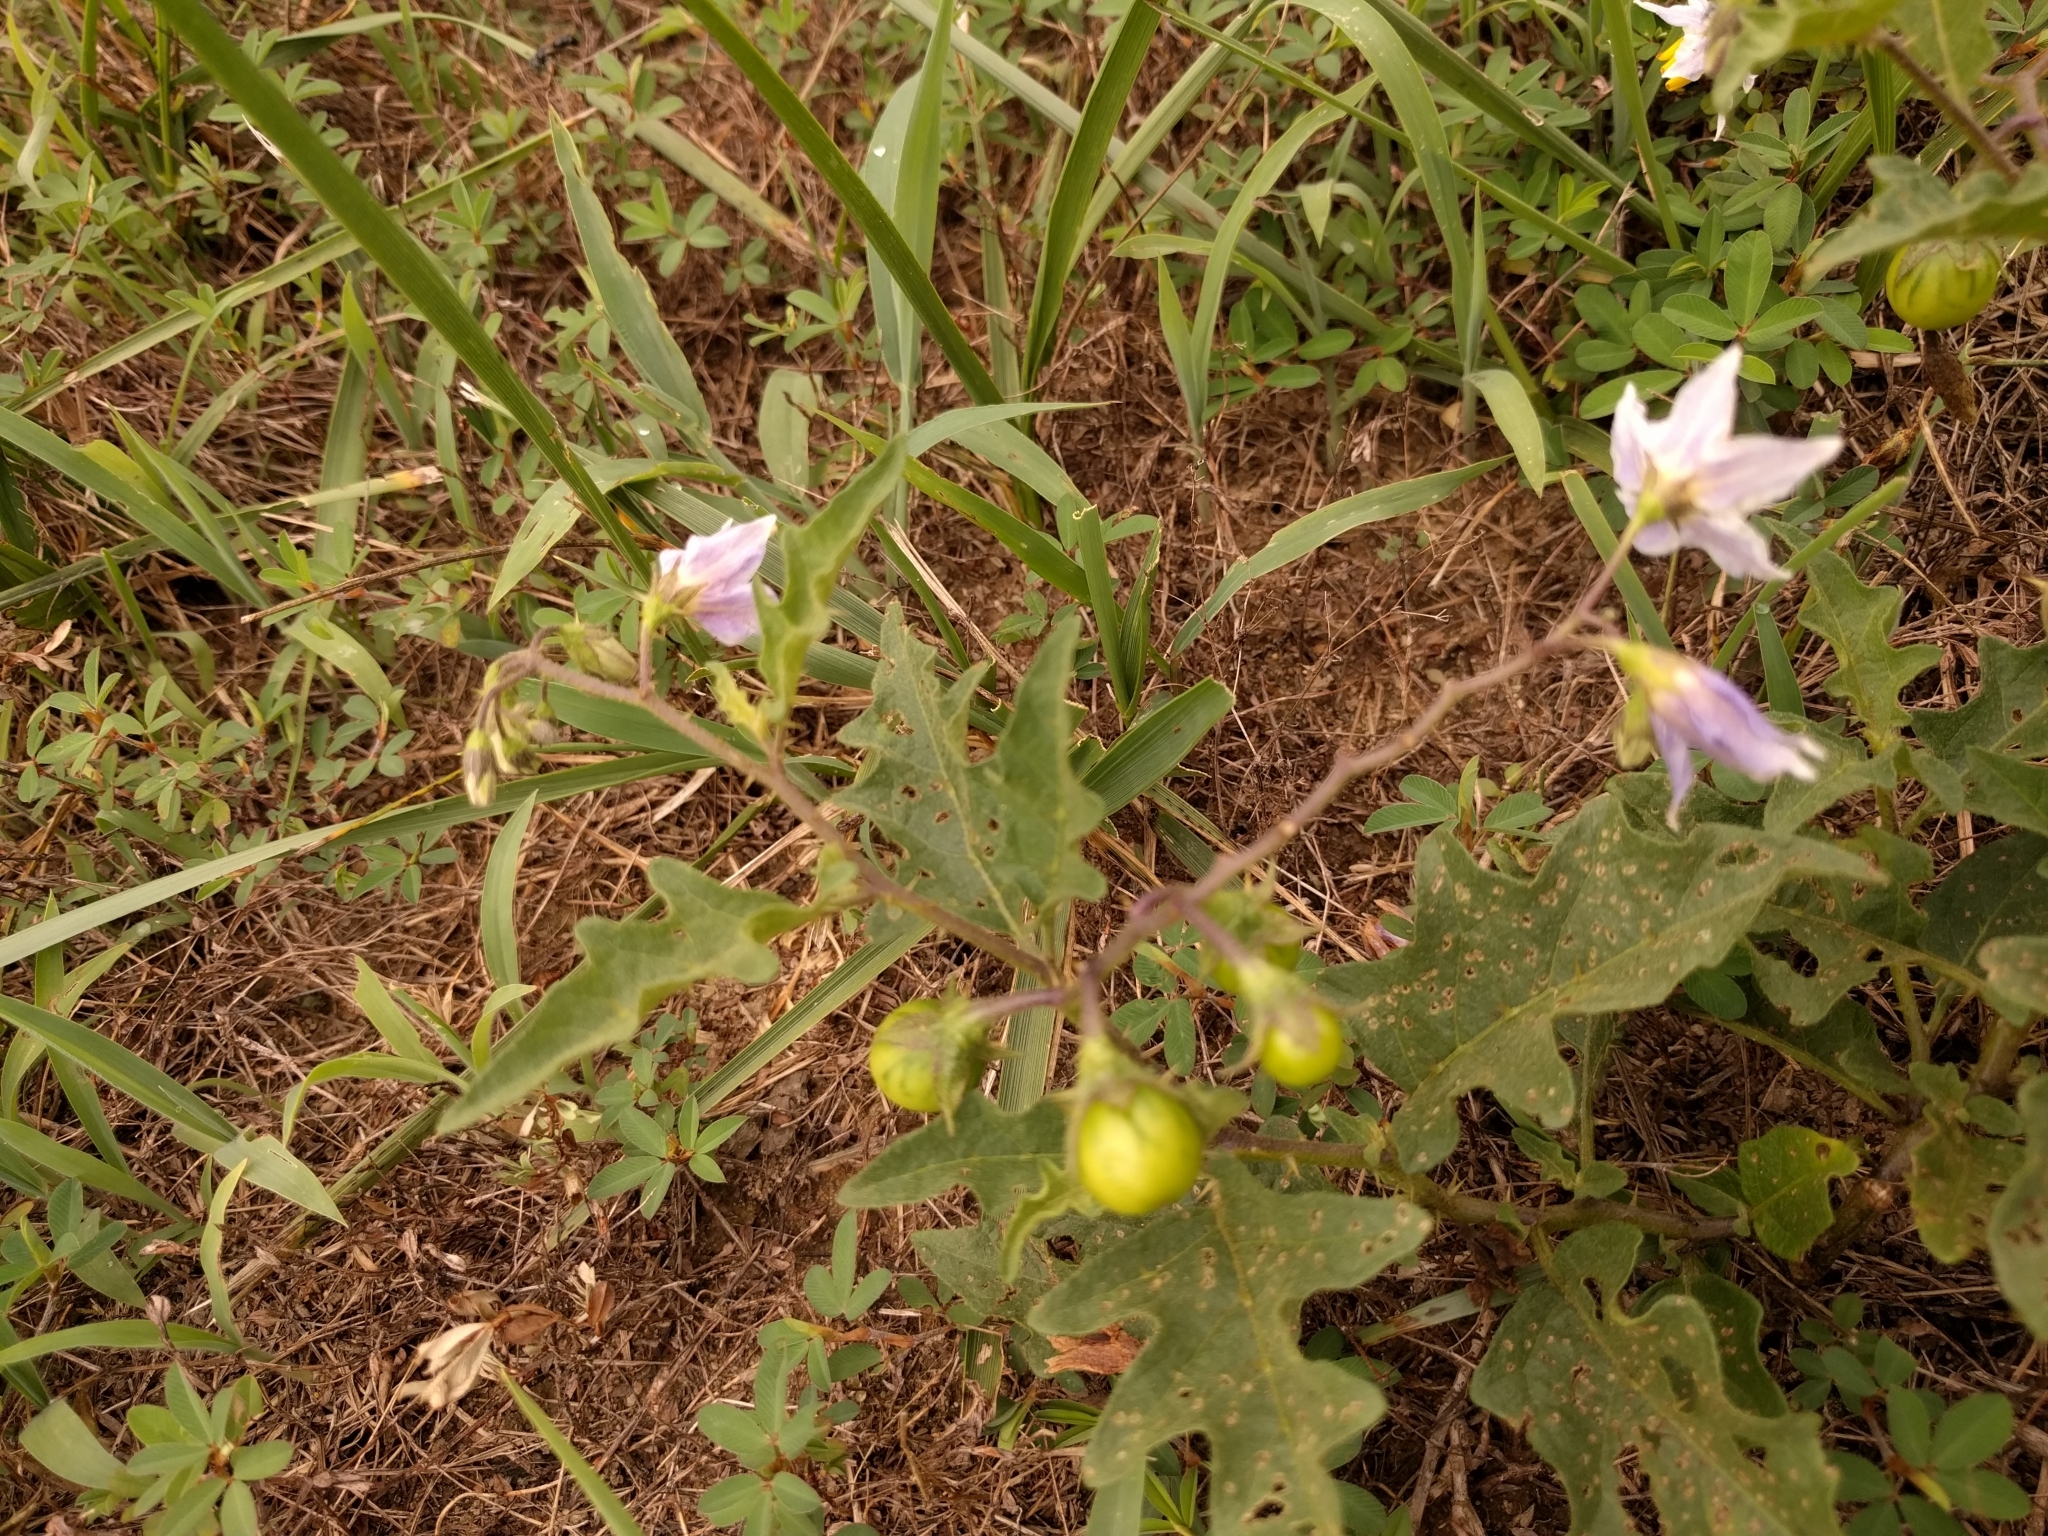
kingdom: Plantae
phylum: Tracheophyta
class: Magnoliopsida
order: Solanales
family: Solanaceae
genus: Solanum
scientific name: Solanum carolinense
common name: Horse-nettle
